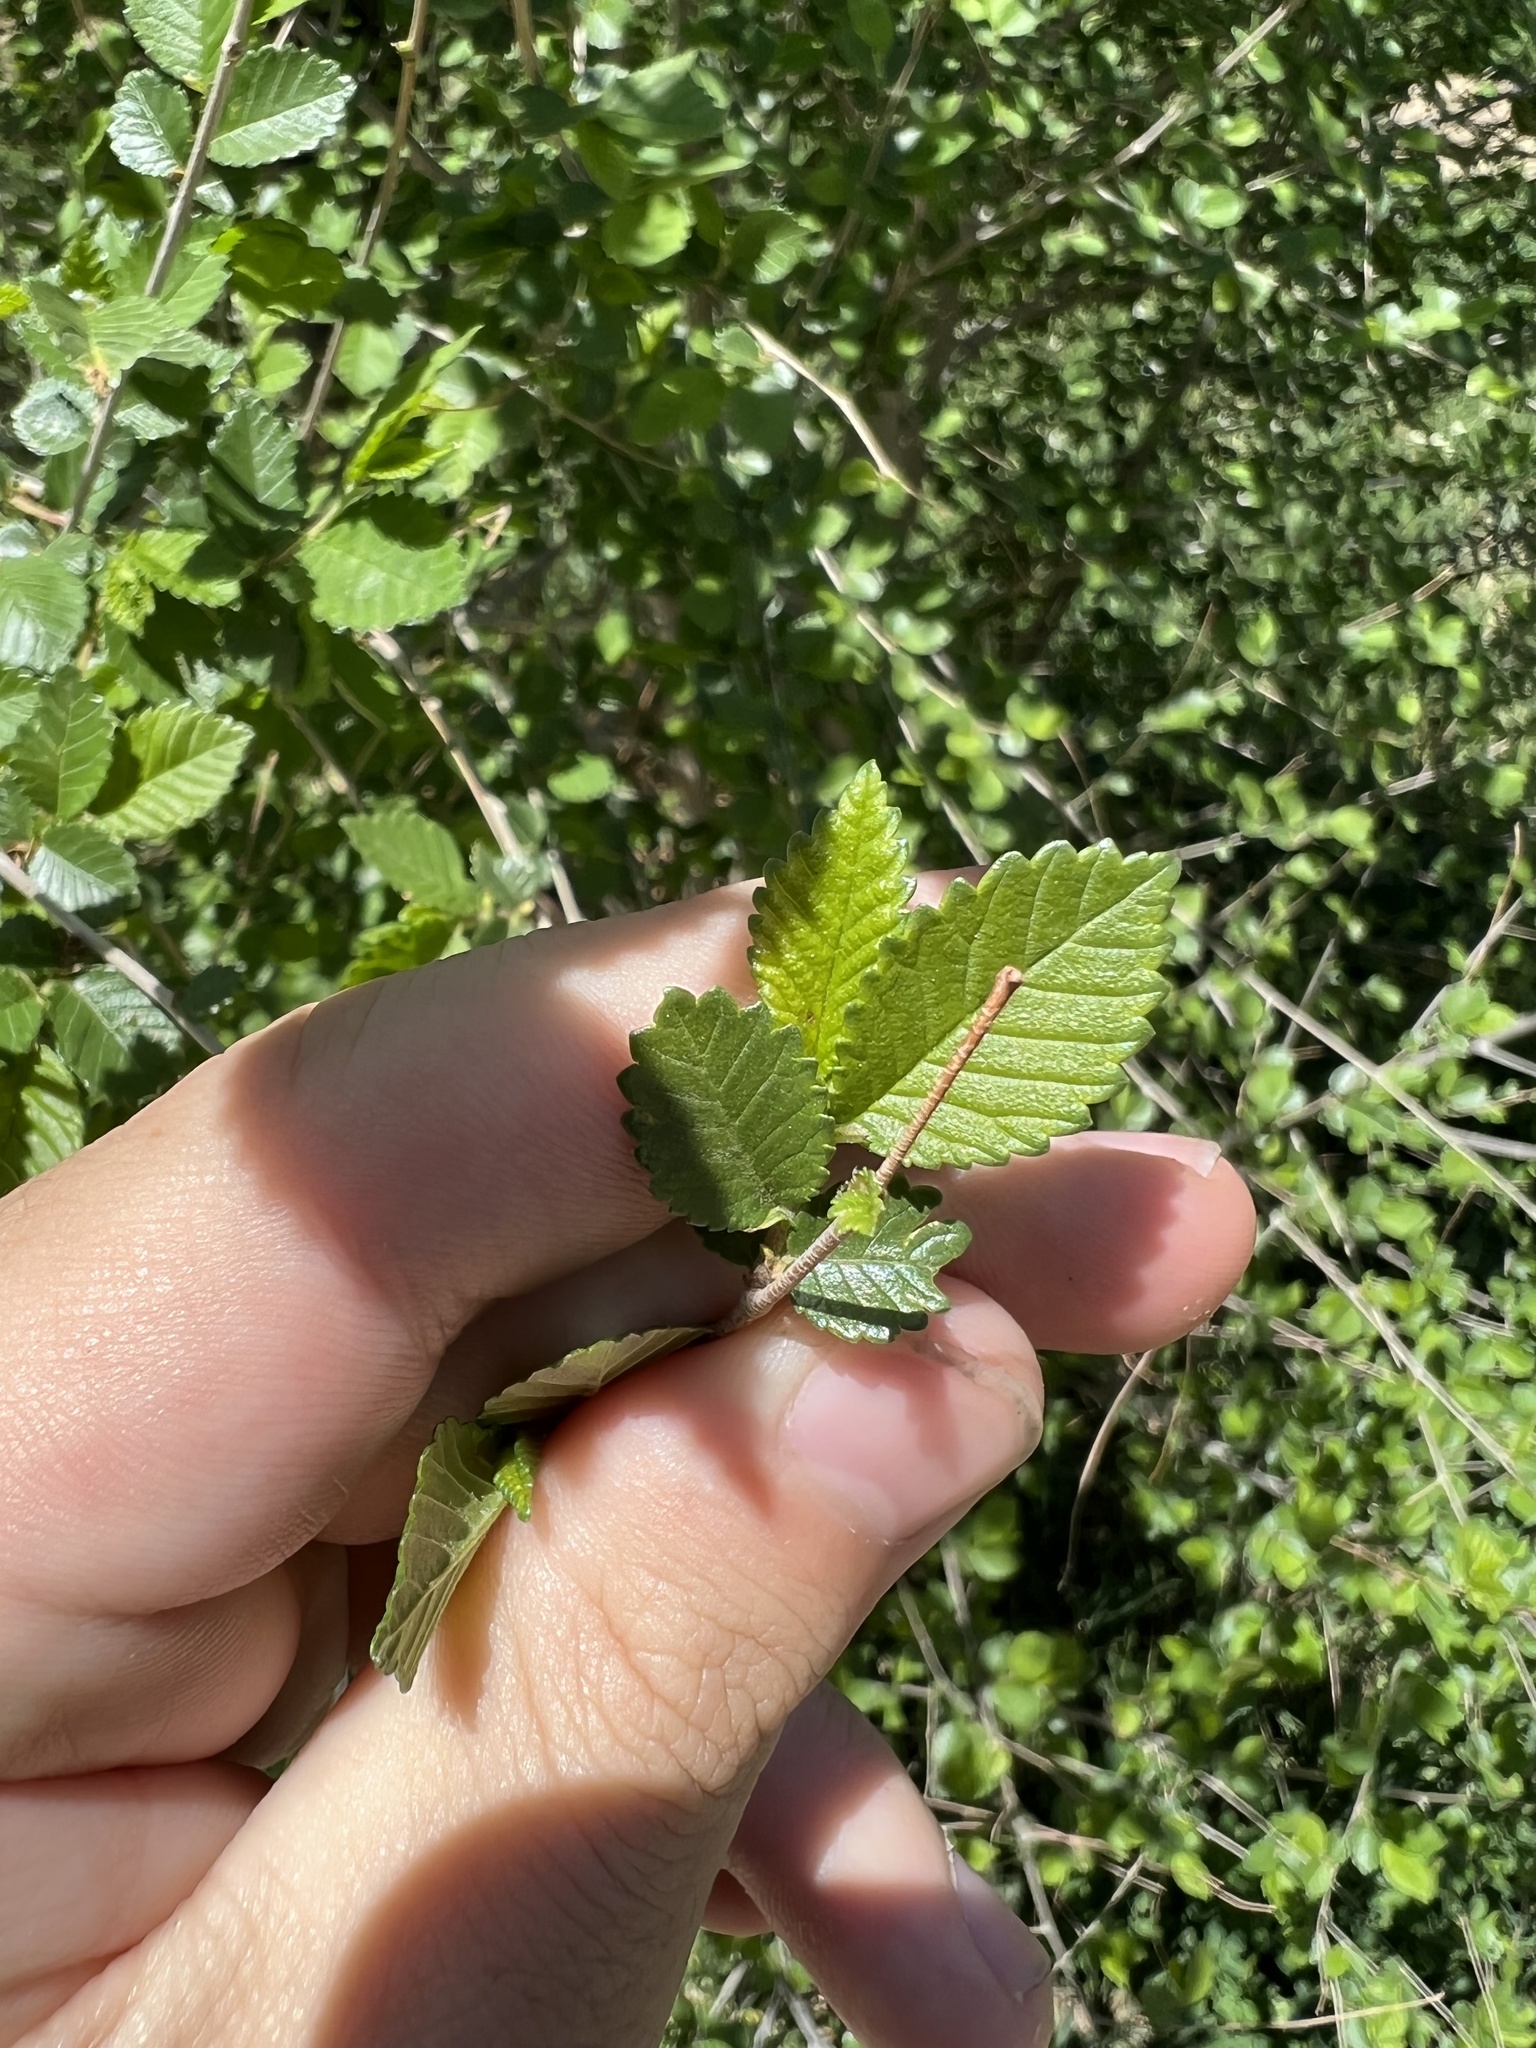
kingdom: Plantae
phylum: Tracheophyta
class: Magnoliopsida
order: Rosales
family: Ulmaceae
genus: Ulmus
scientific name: Ulmus pumila
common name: Siberian elm
